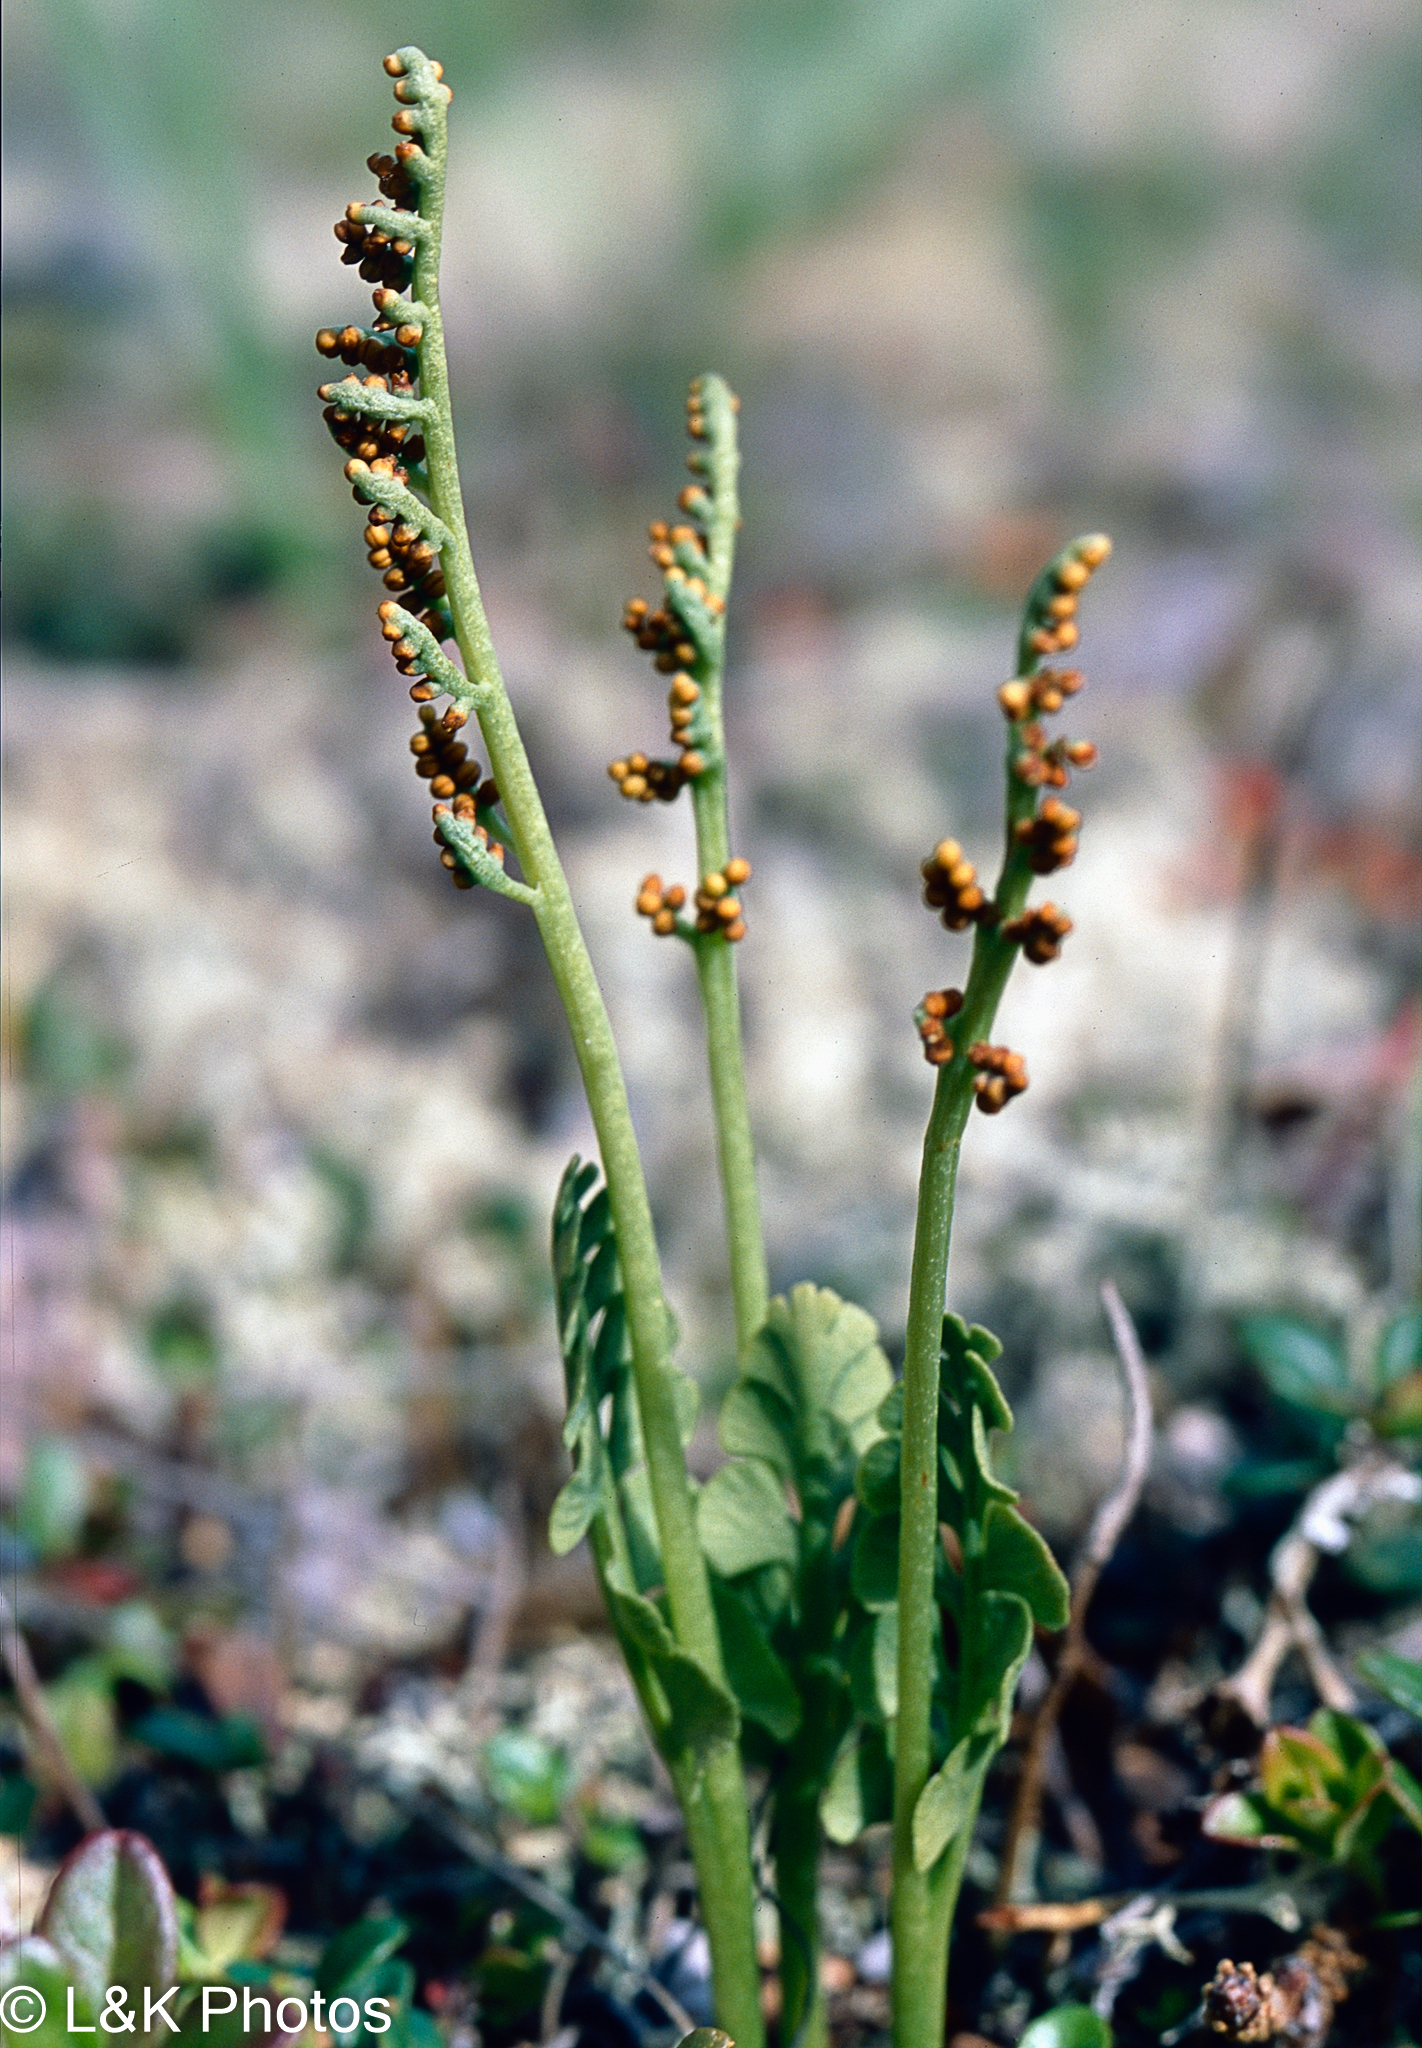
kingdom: Plantae
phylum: Tracheophyta
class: Polypodiopsida
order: Ophioglossales
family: Ophioglossaceae
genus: Botrychium
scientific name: Botrychium neolunaria
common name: New world moonwort
